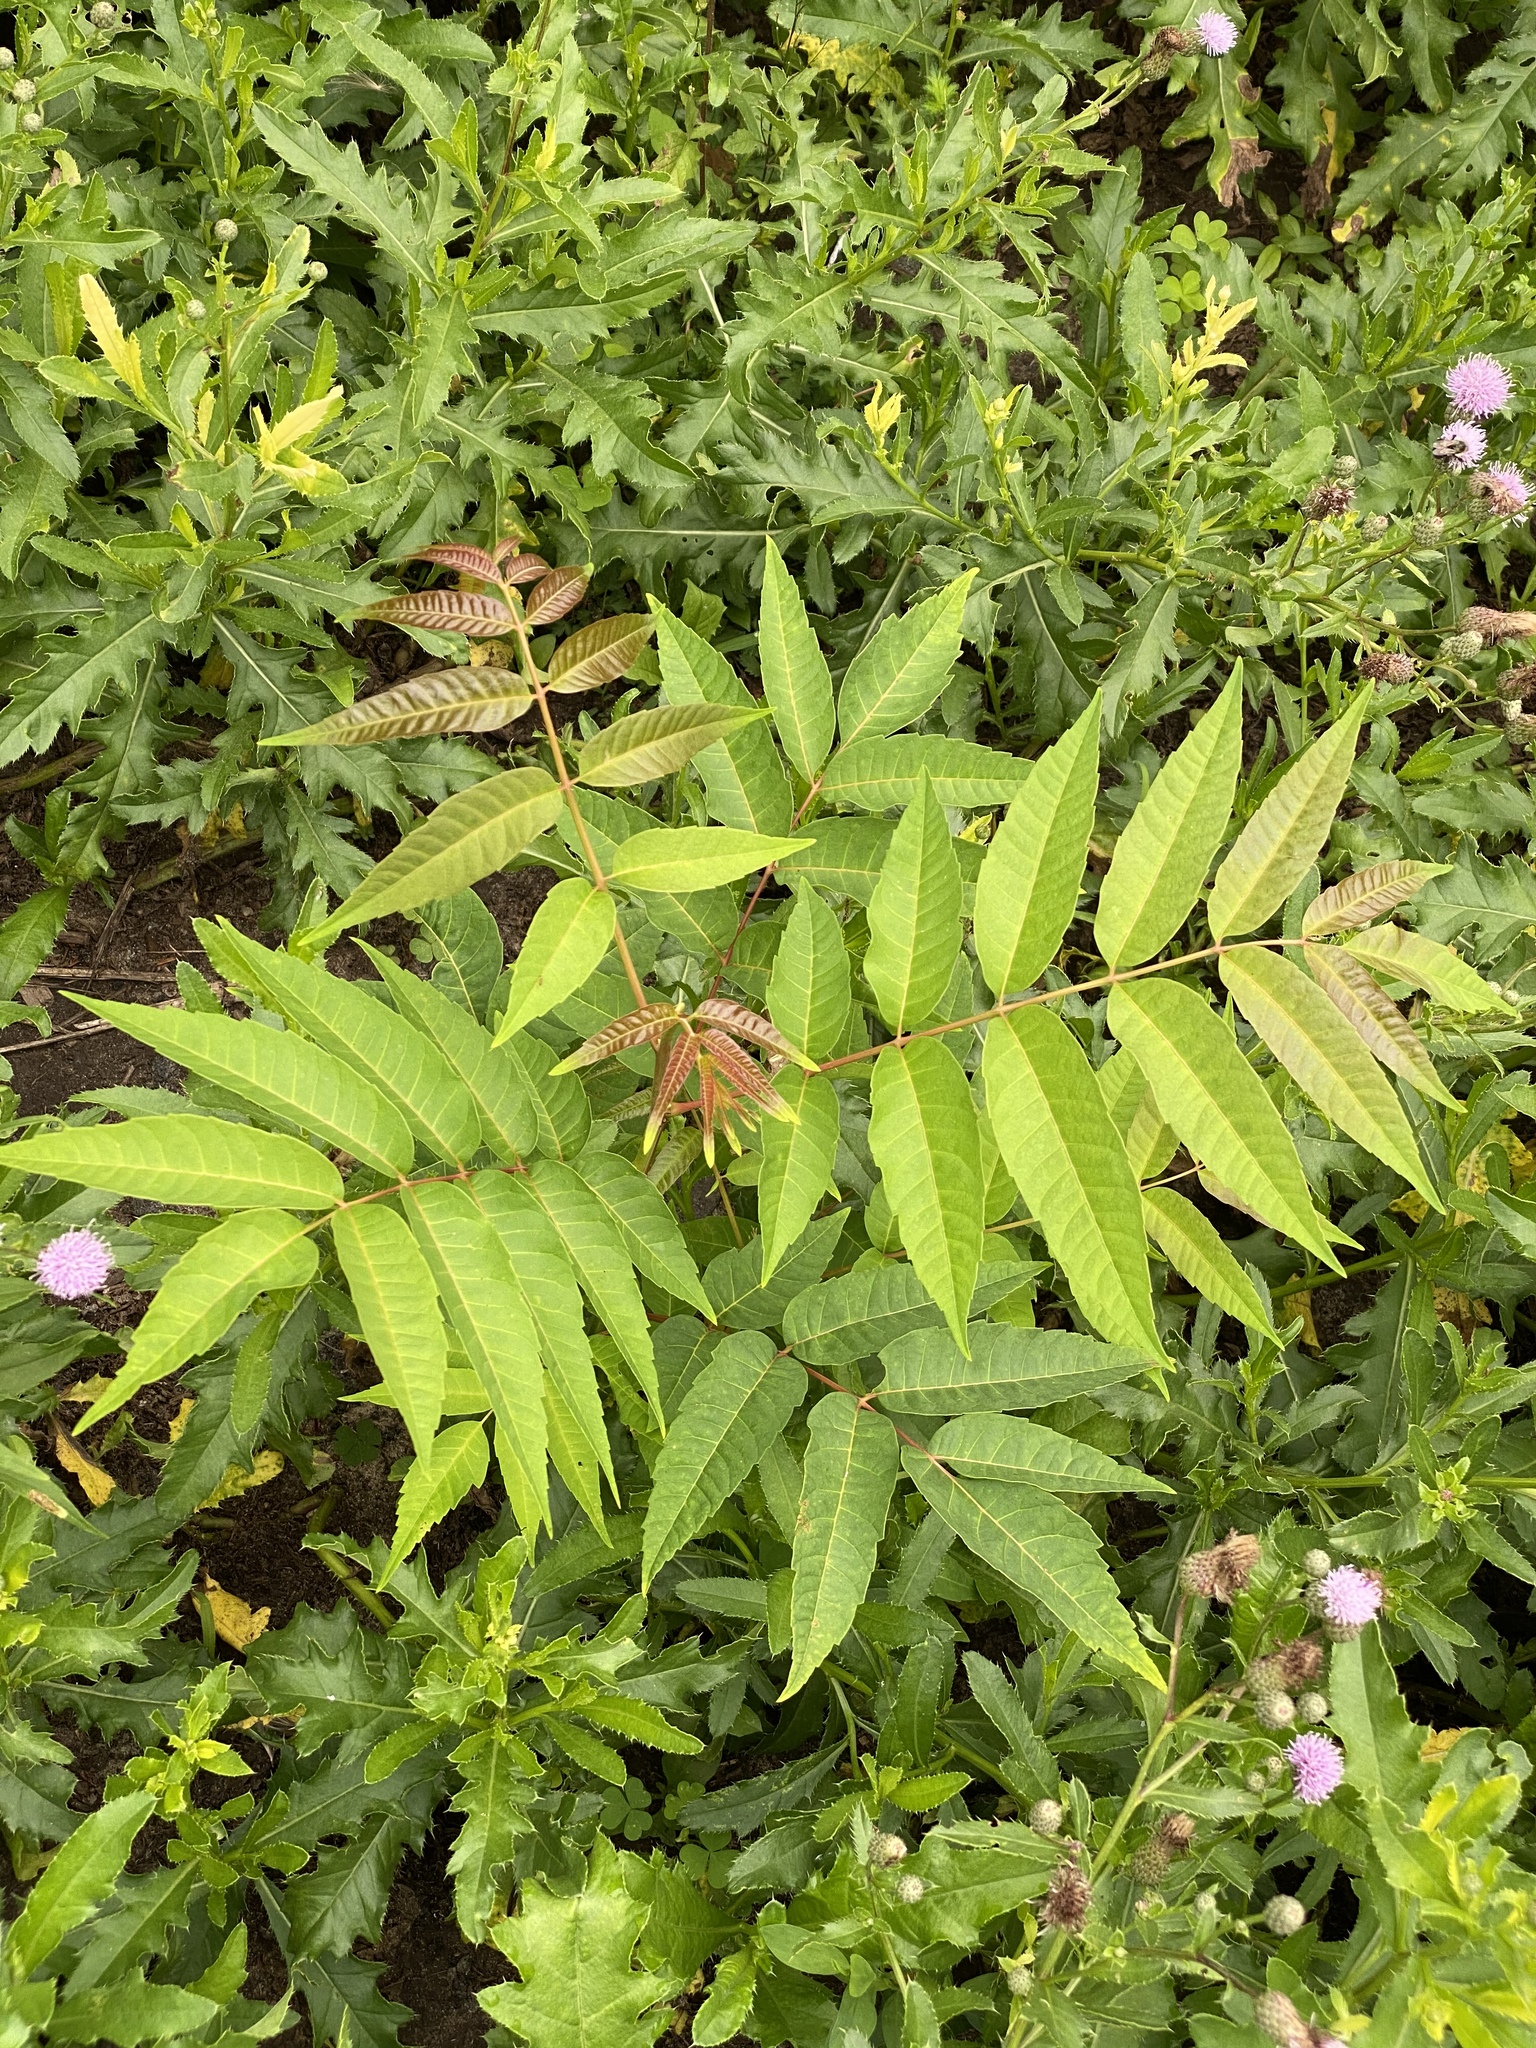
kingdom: Plantae
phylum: Tracheophyta
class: Magnoliopsida
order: Sapindales
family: Anacardiaceae
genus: Rhus
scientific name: Rhus glabra
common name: Scarlet sumac
